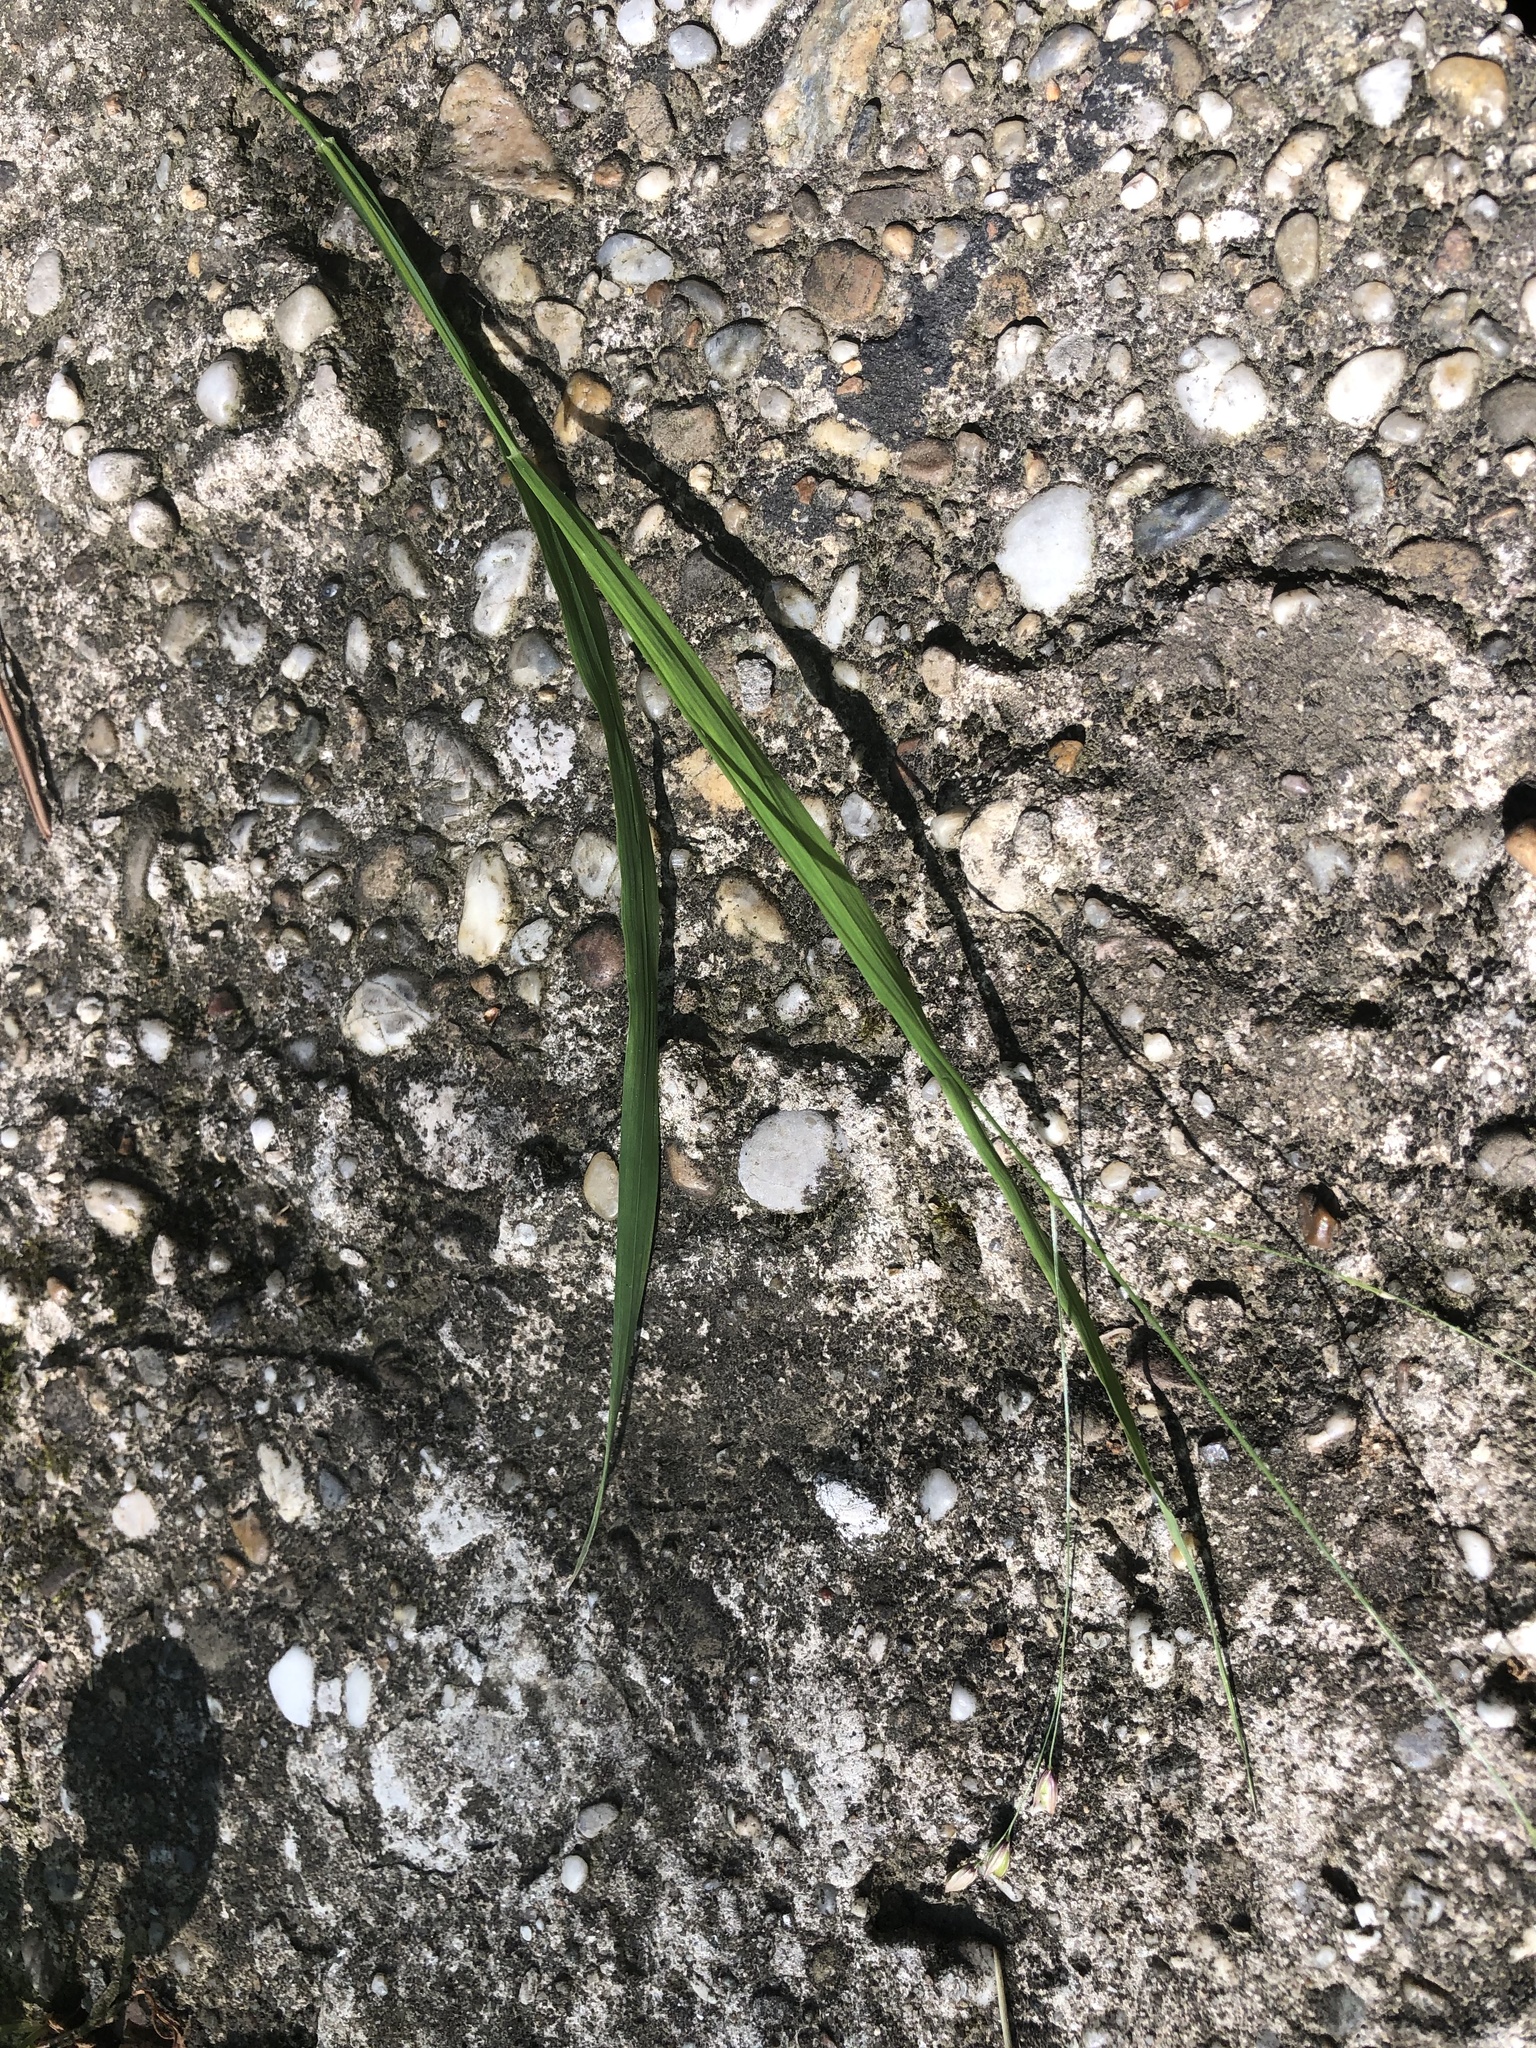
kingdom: Plantae
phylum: Tracheophyta
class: Liliopsida
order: Poales
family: Poaceae
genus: Melica
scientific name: Melica uniflora
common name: Wood melick
